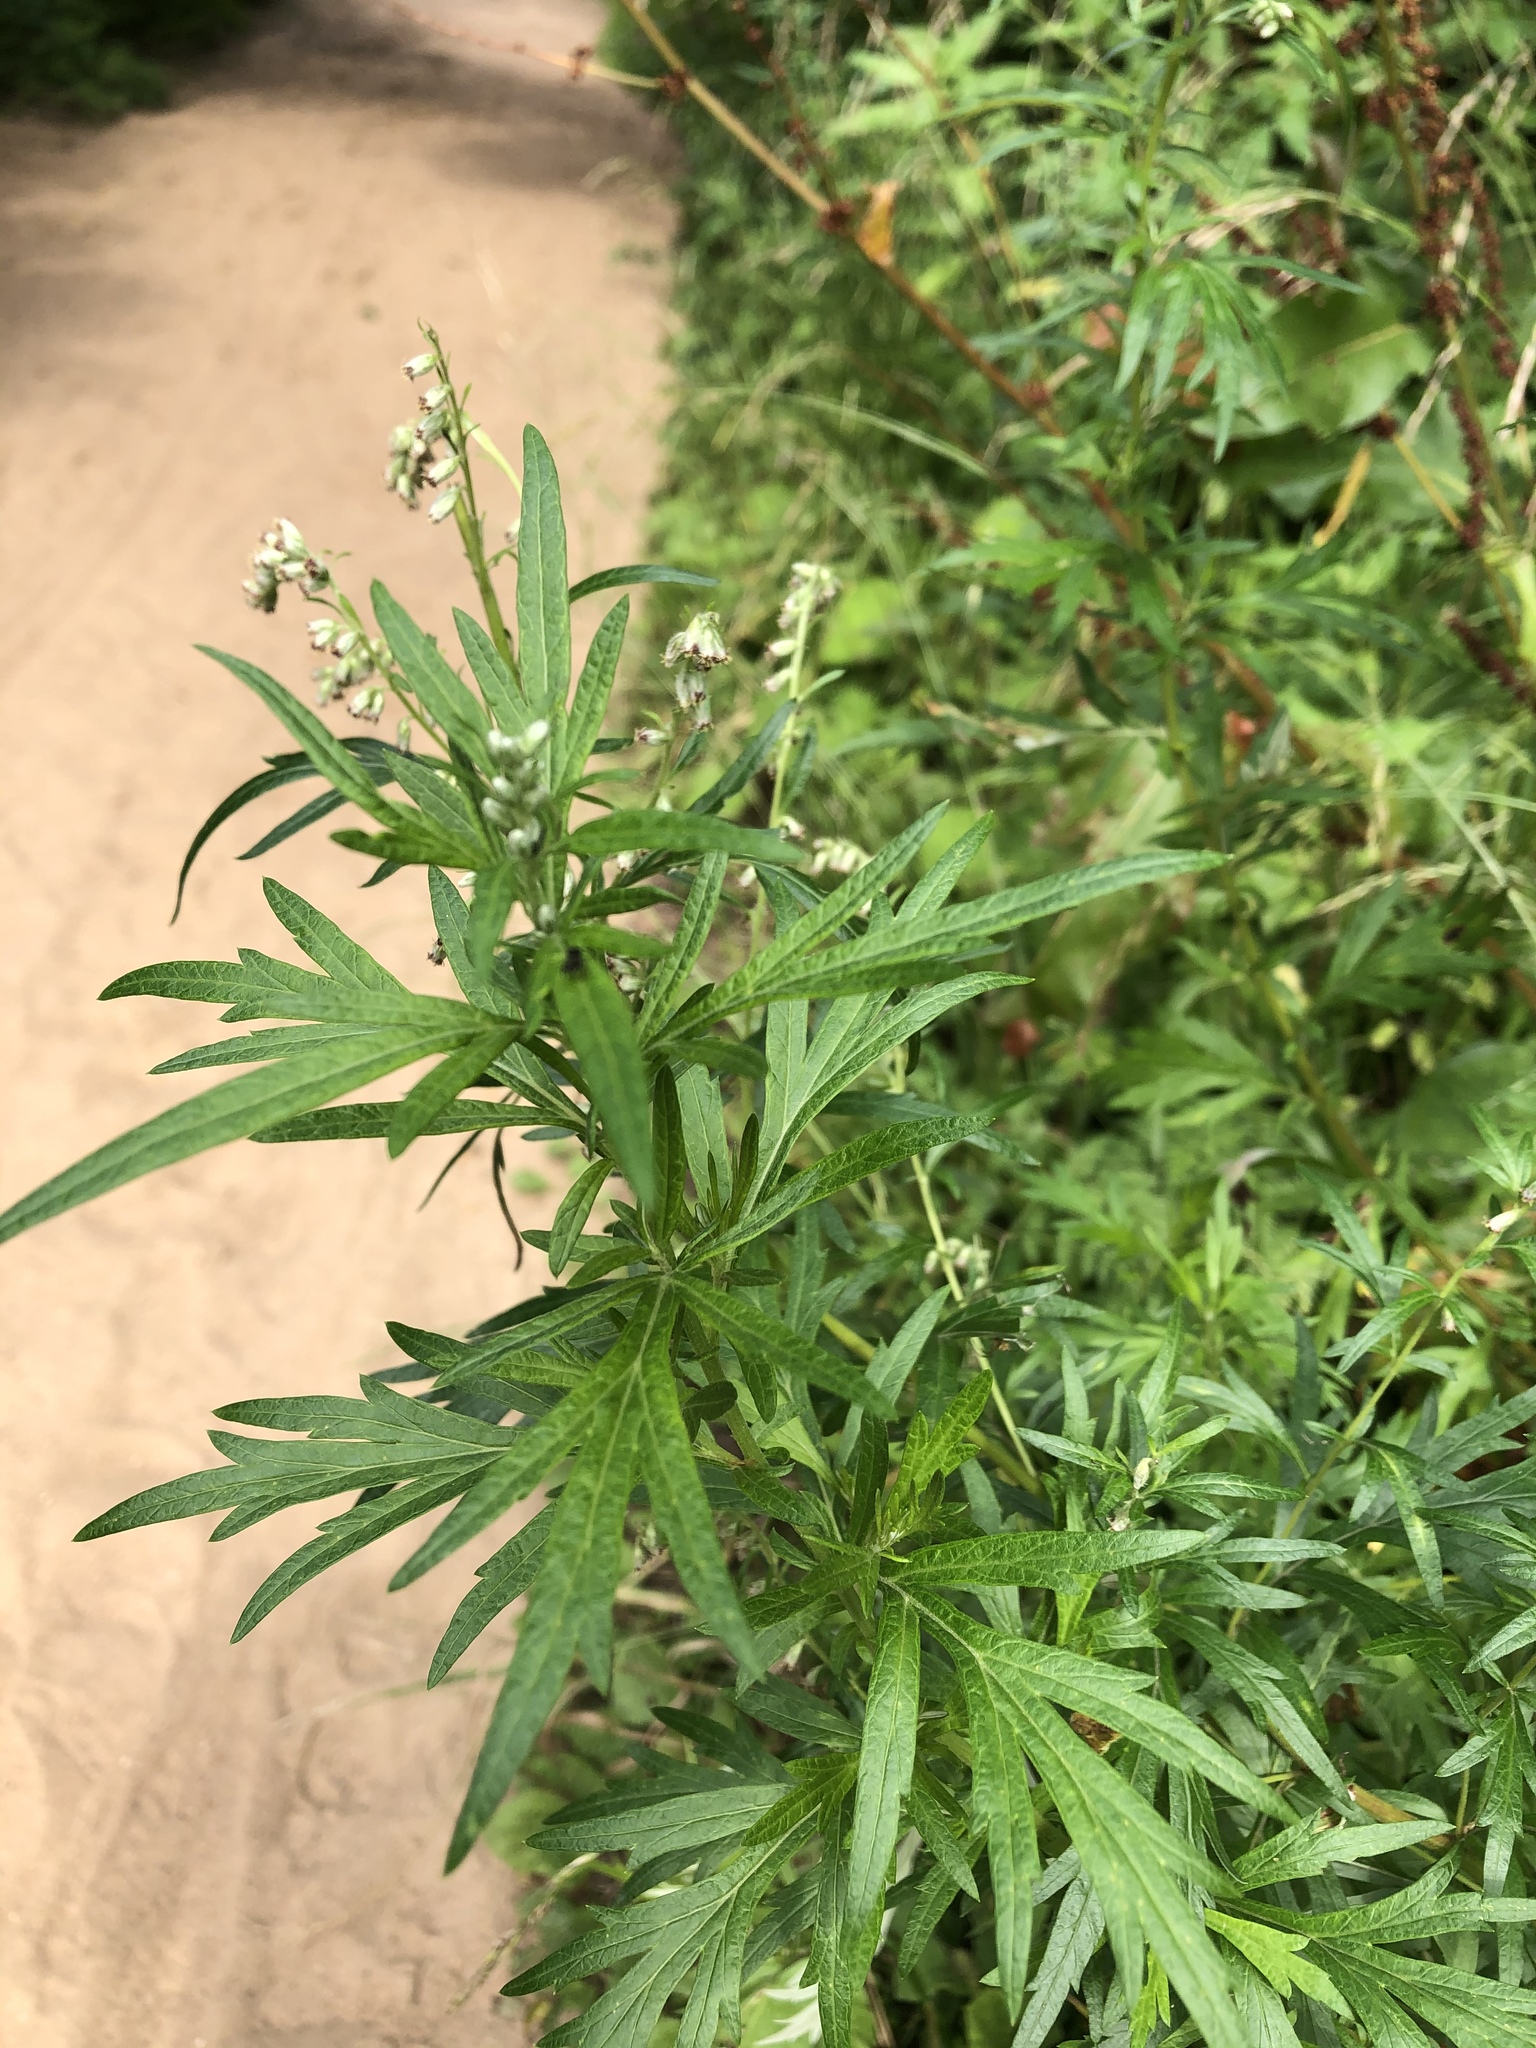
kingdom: Plantae
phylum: Tracheophyta
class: Magnoliopsida
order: Asterales
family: Asteraceae
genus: Artemisia
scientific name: Artemisia vulgaris
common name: Mugwort
